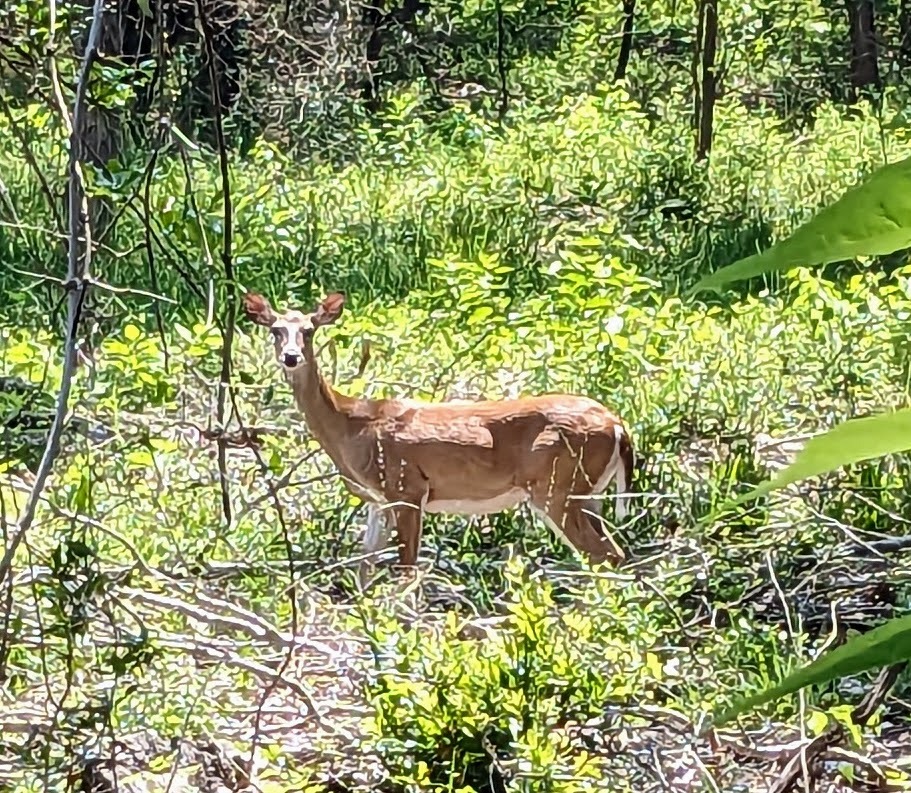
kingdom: Animalia
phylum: Chordata
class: Mammalia
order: Artiodactyla
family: Cervidae
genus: Odocoileus
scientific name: Odocoileus virginianus
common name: White-tailed deer
